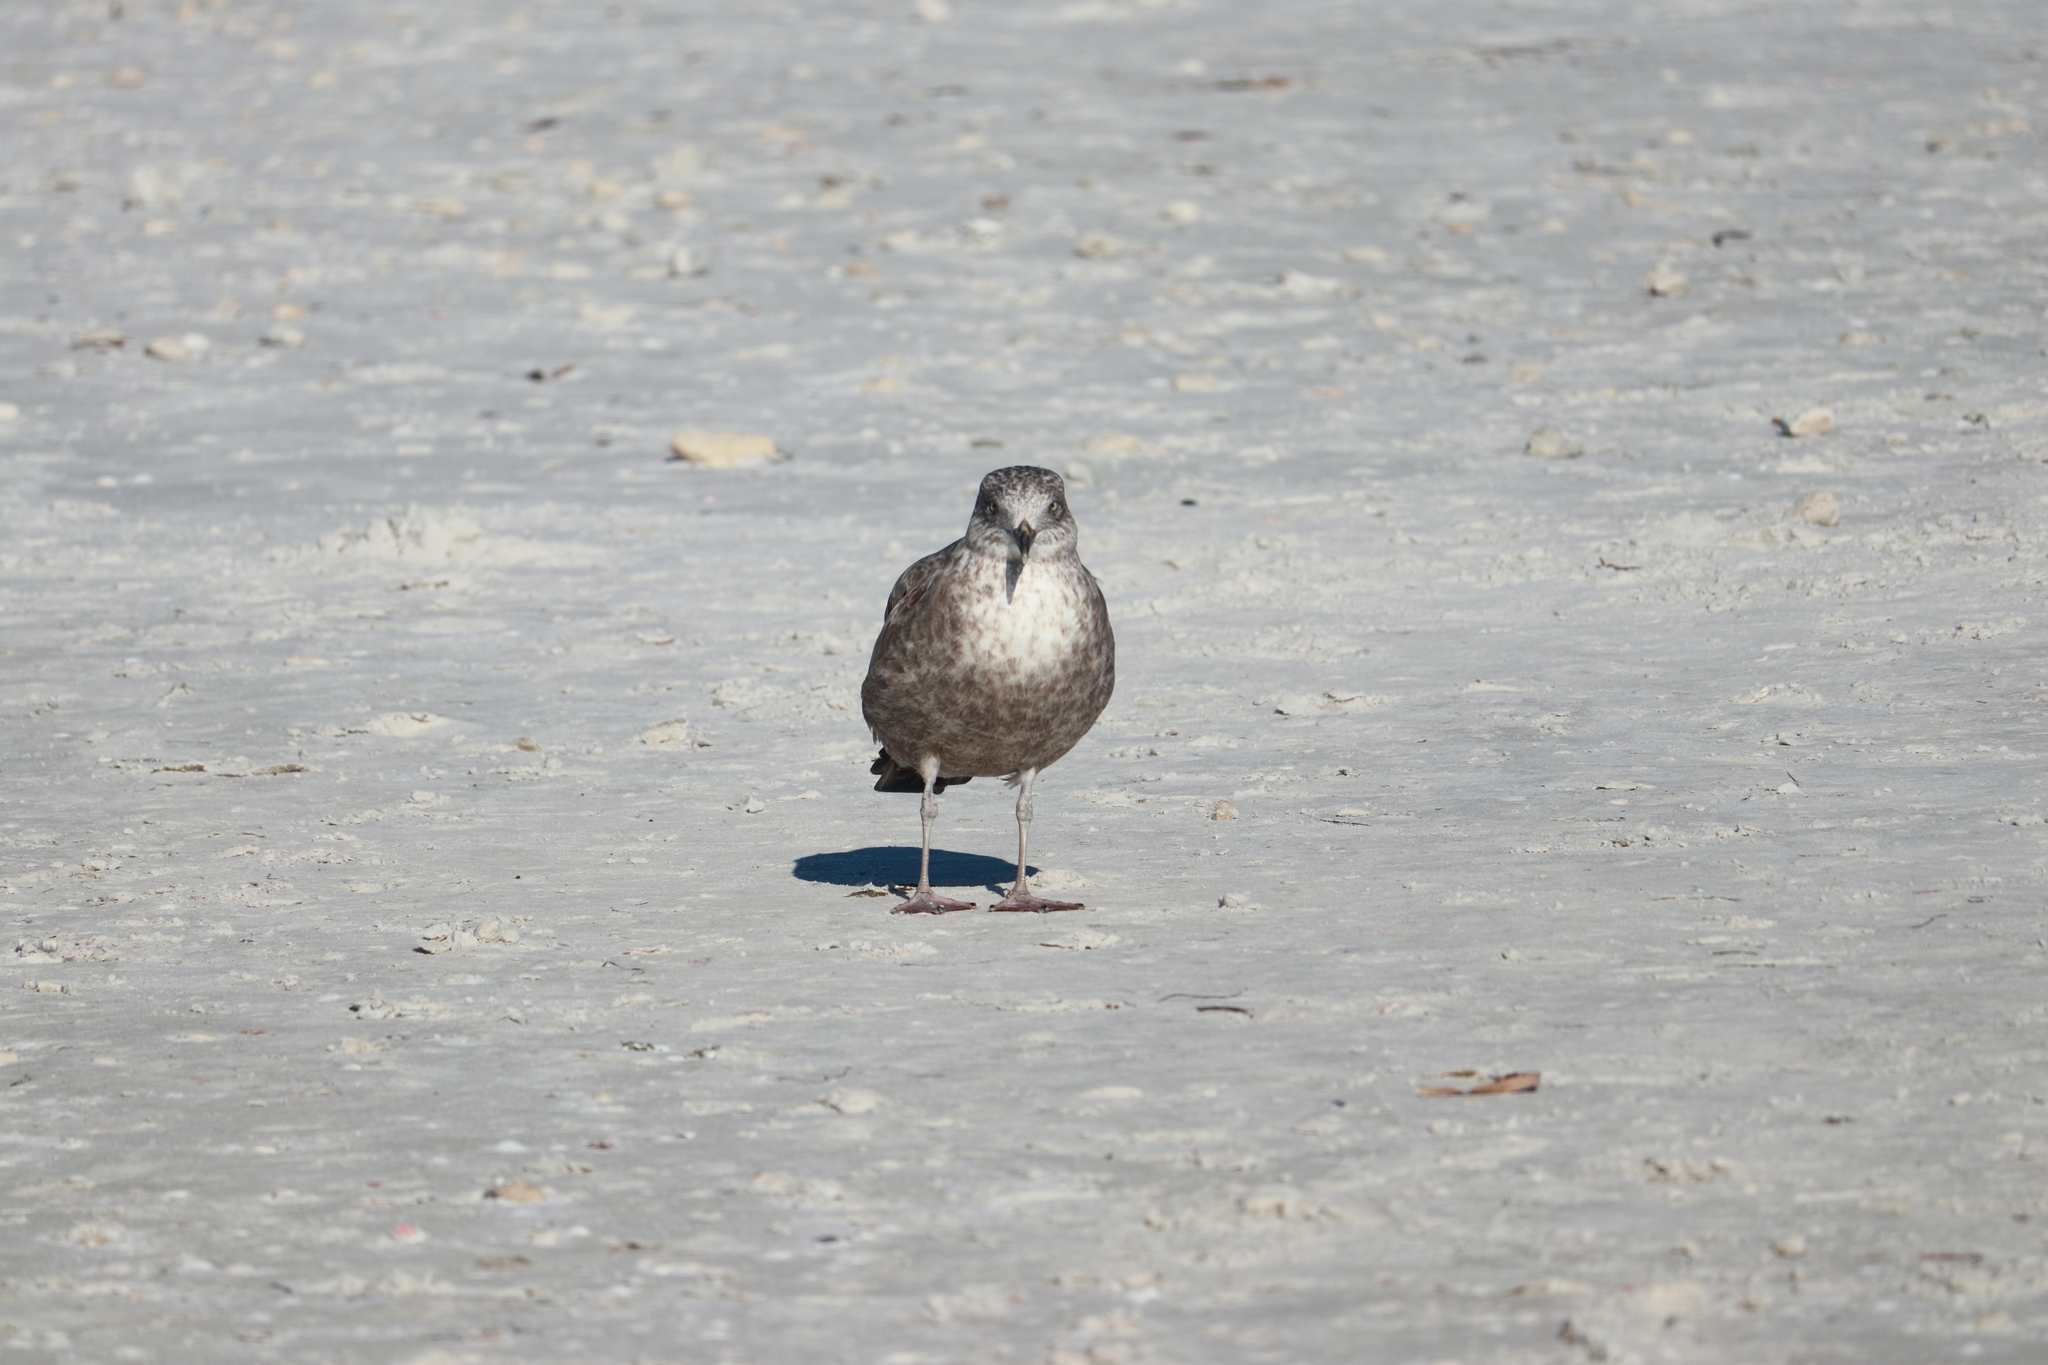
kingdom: Animalia
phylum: Chordata
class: Aves
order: Charadriiformes
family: Laridae
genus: Larus
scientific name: Larus argentatus
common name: Herring gull
